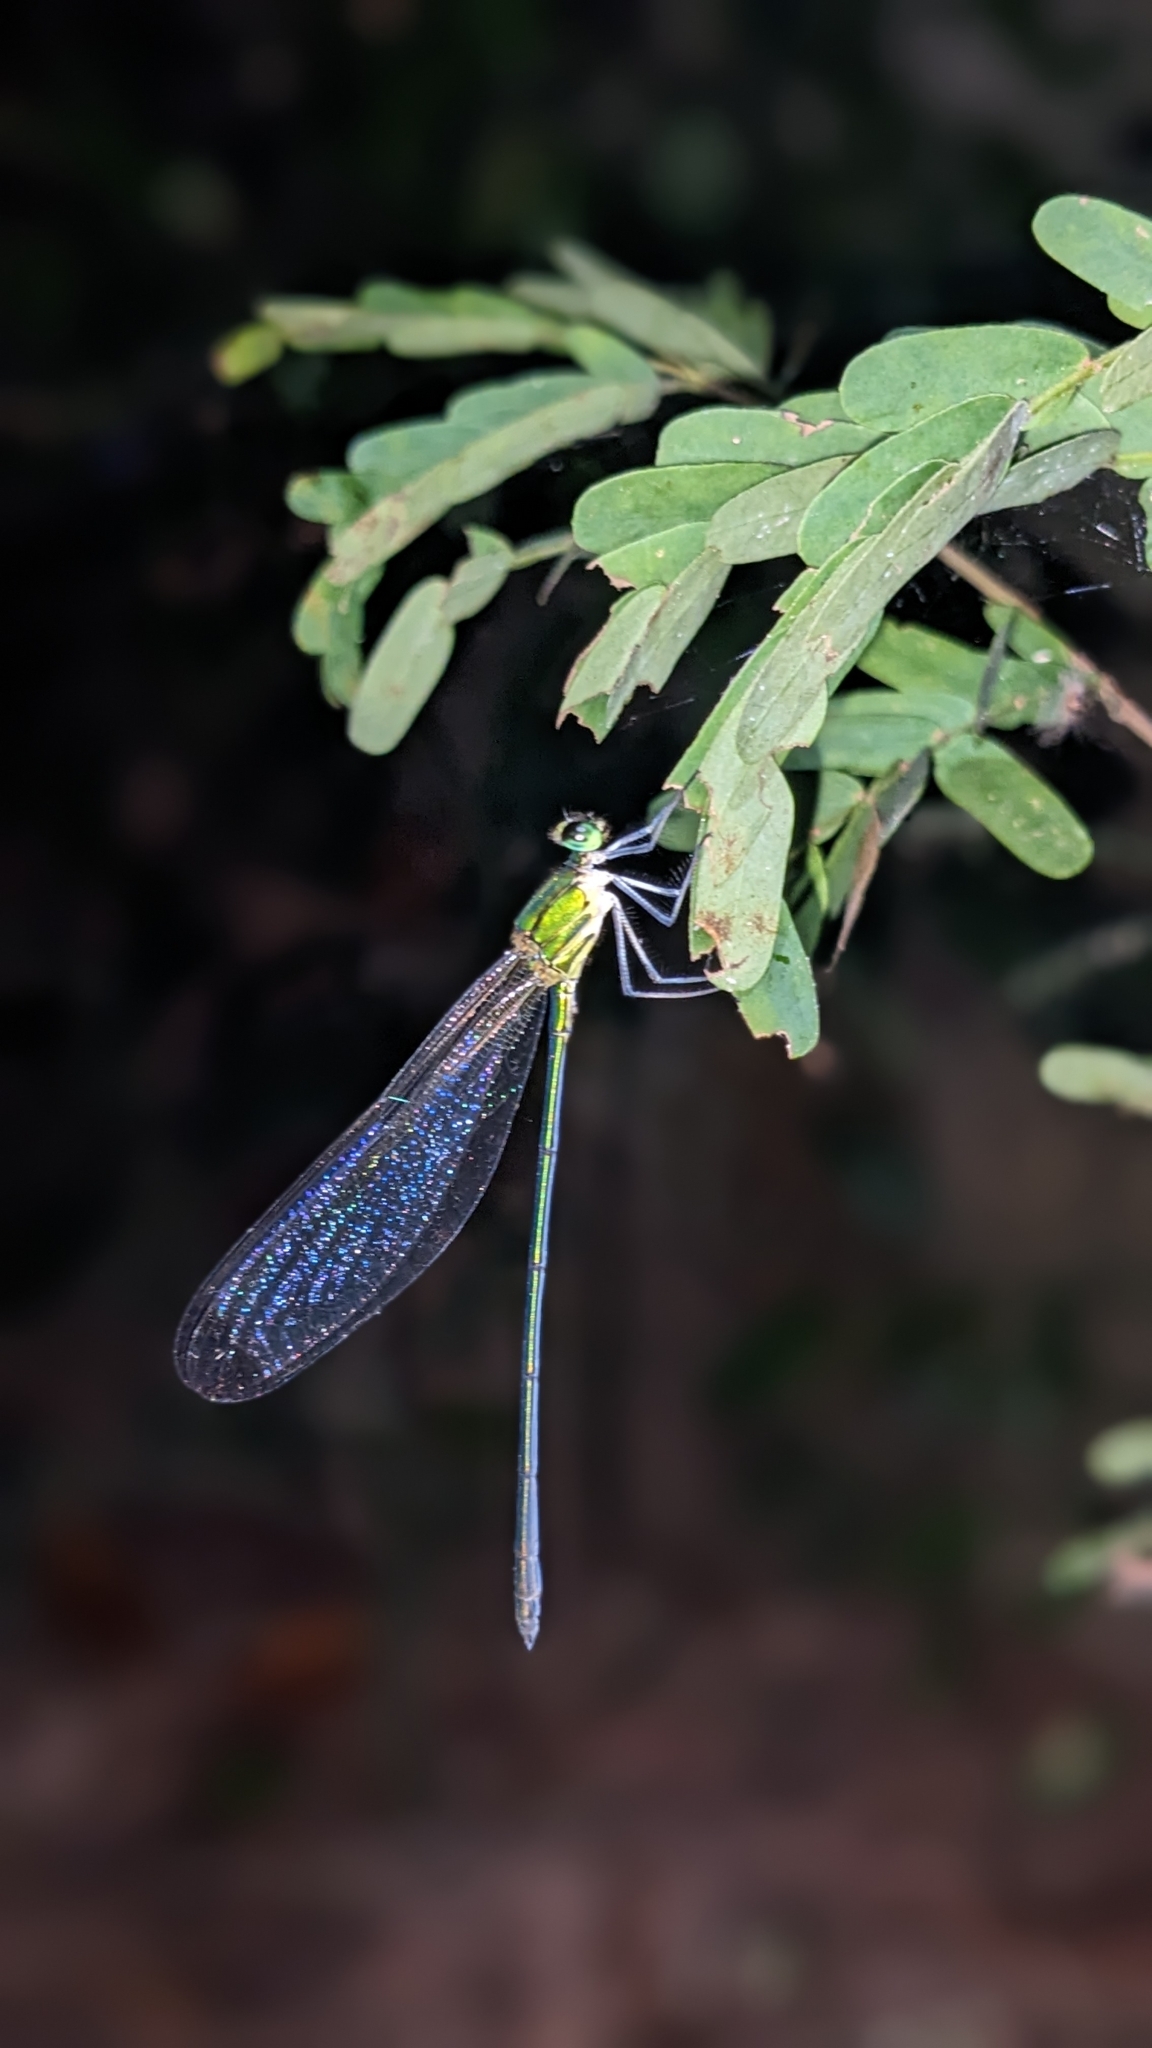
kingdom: Animalia
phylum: Arthropoda
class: Insecta
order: Odonata
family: Calopterygidae
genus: Vestalis
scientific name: Vestalis apicalis
